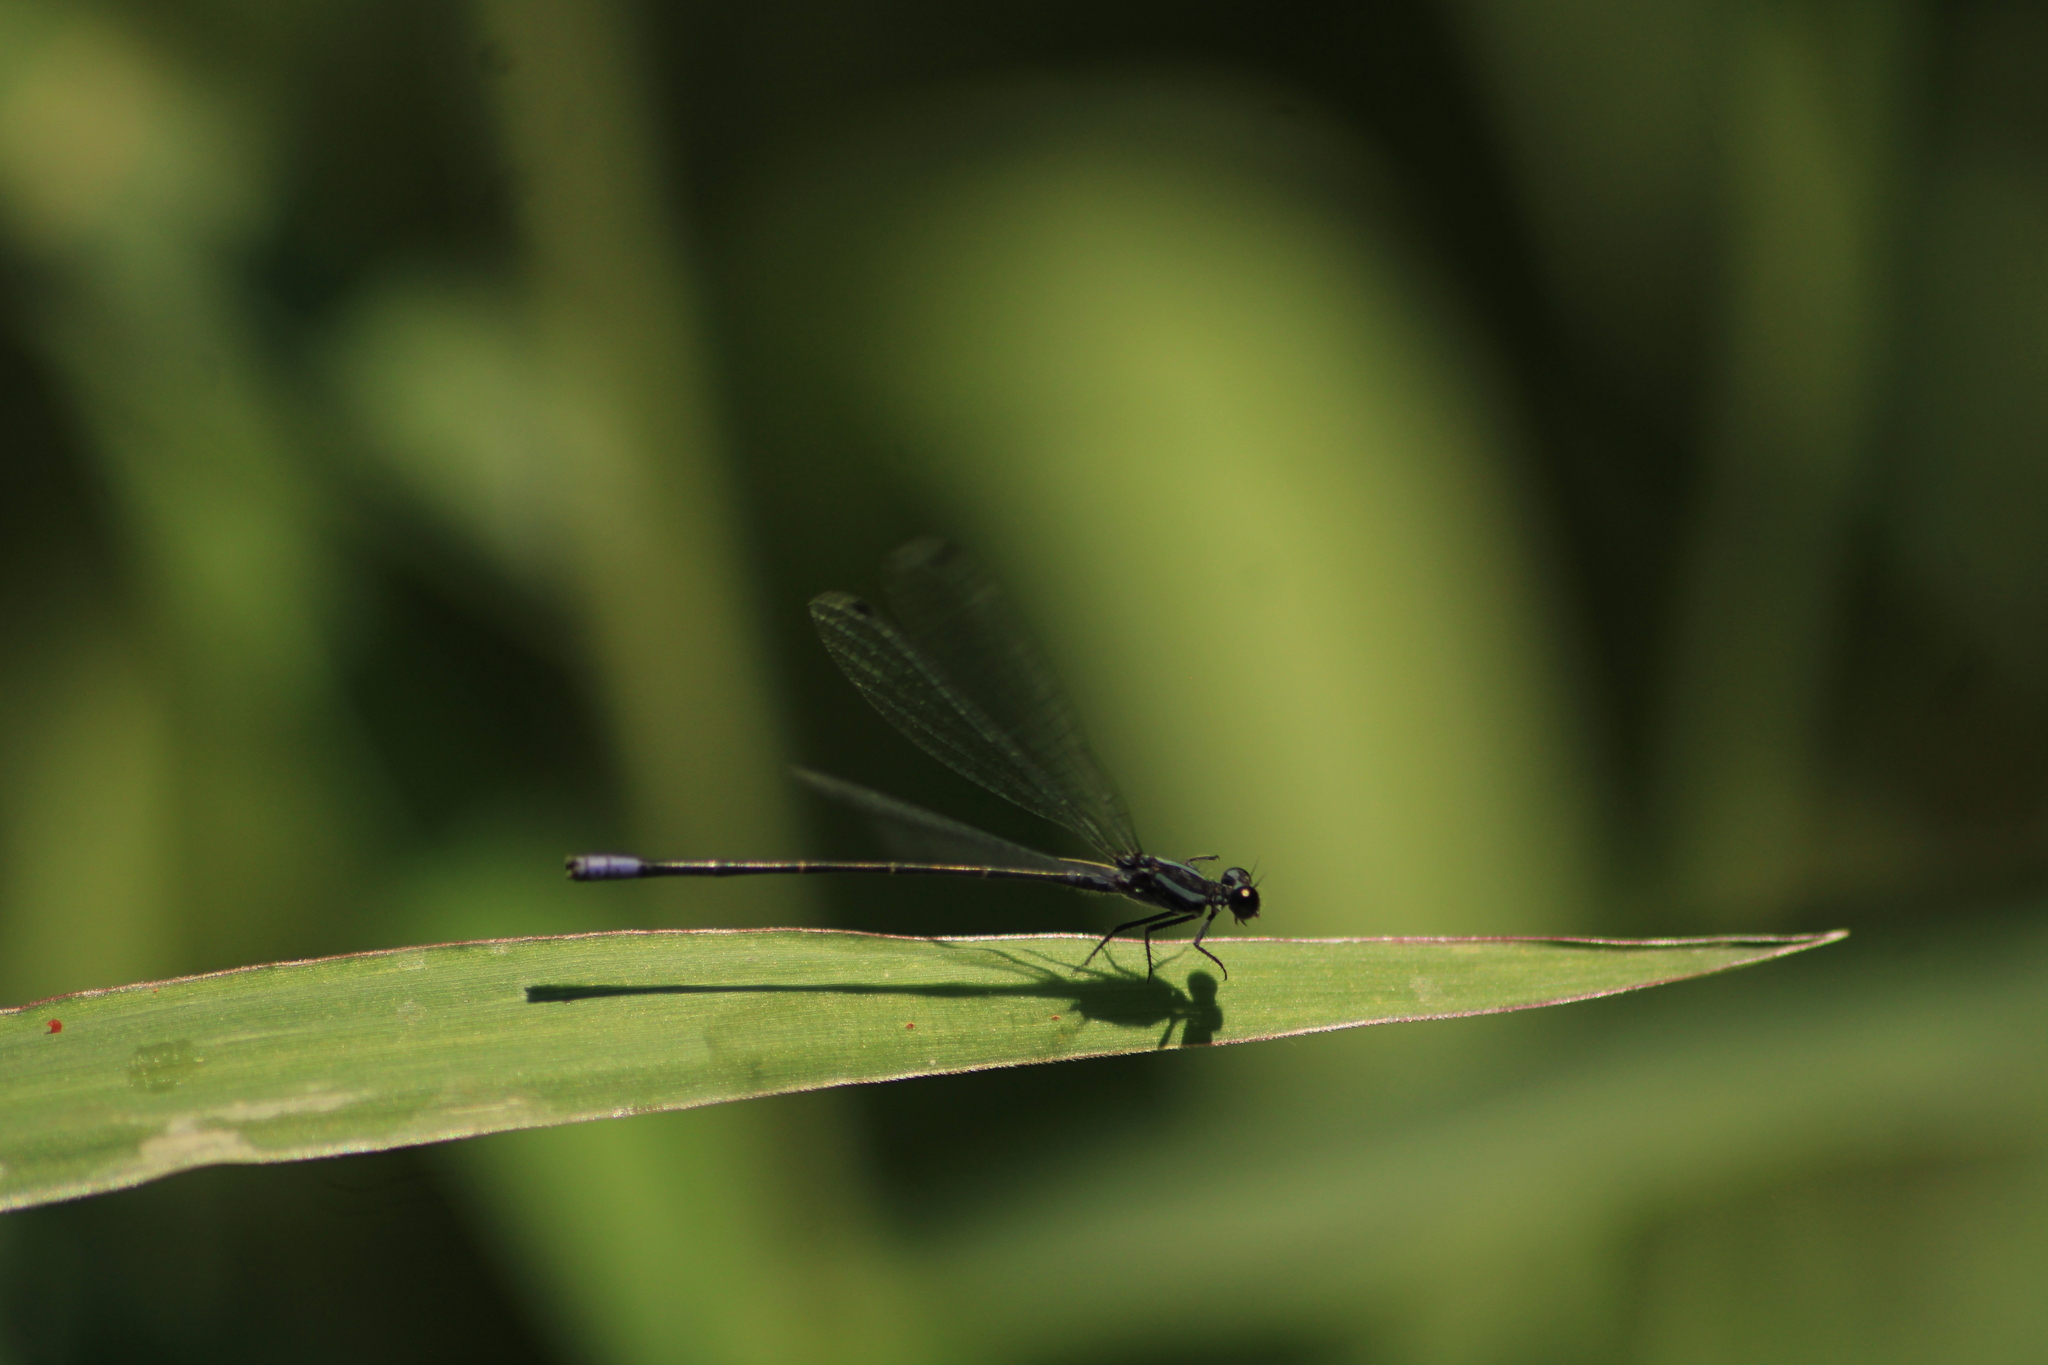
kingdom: Animalia
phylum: Arthropoda
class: Insecta
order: Odonata
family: Coenagrionidae
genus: Argia
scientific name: Argia pulla
